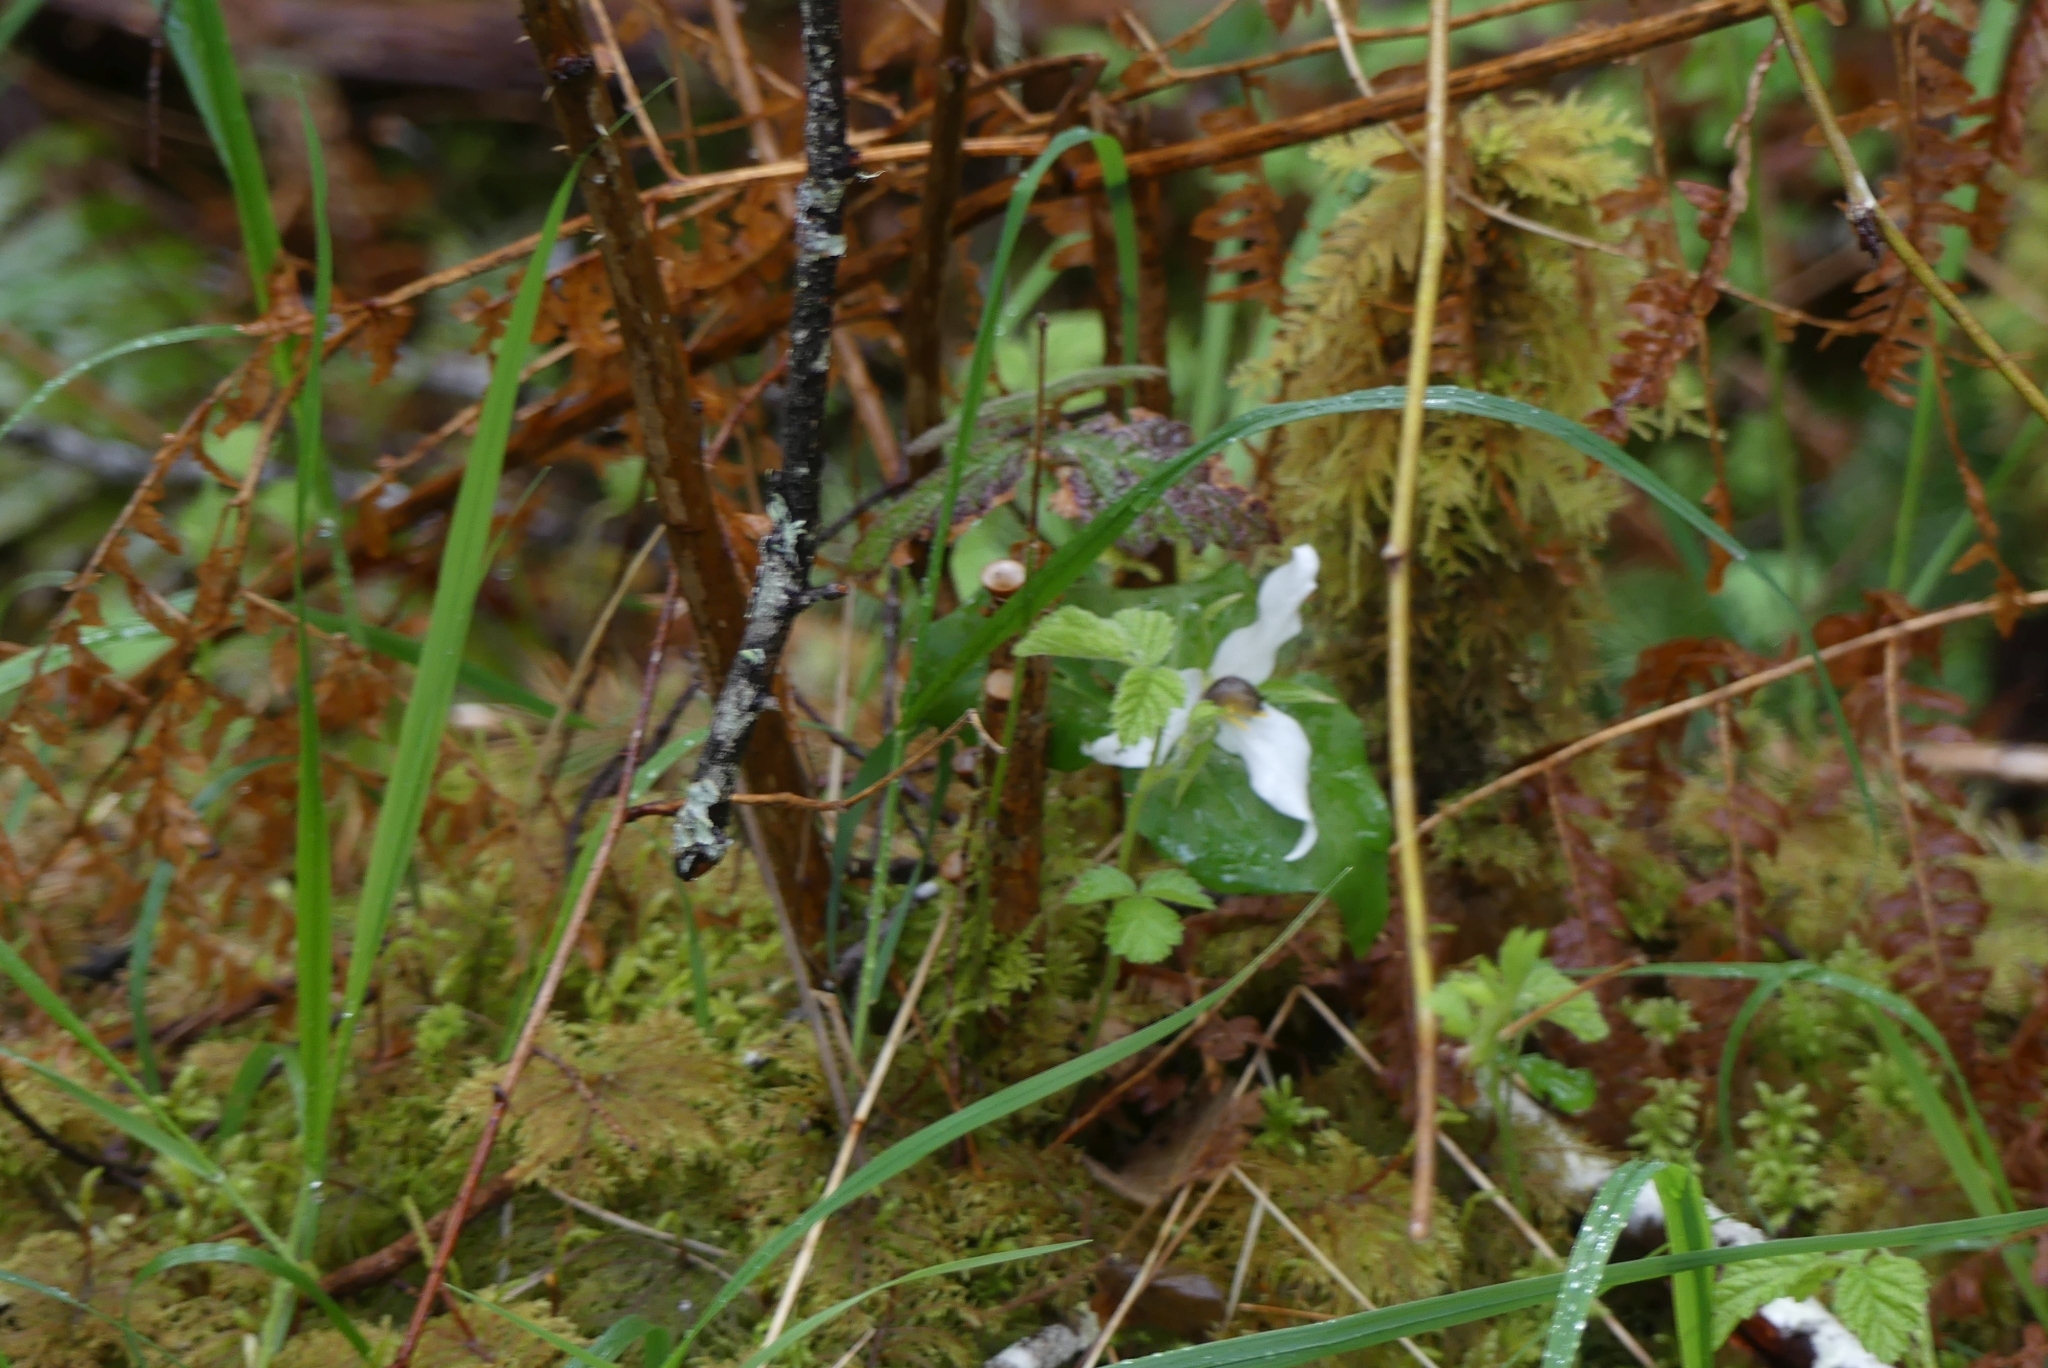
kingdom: Plantae
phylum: Tracheophyta
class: Liliopsida
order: Liliales
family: Melanthiaceae
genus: Trillium
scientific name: Trillium ovatum
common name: Pacific trillium
